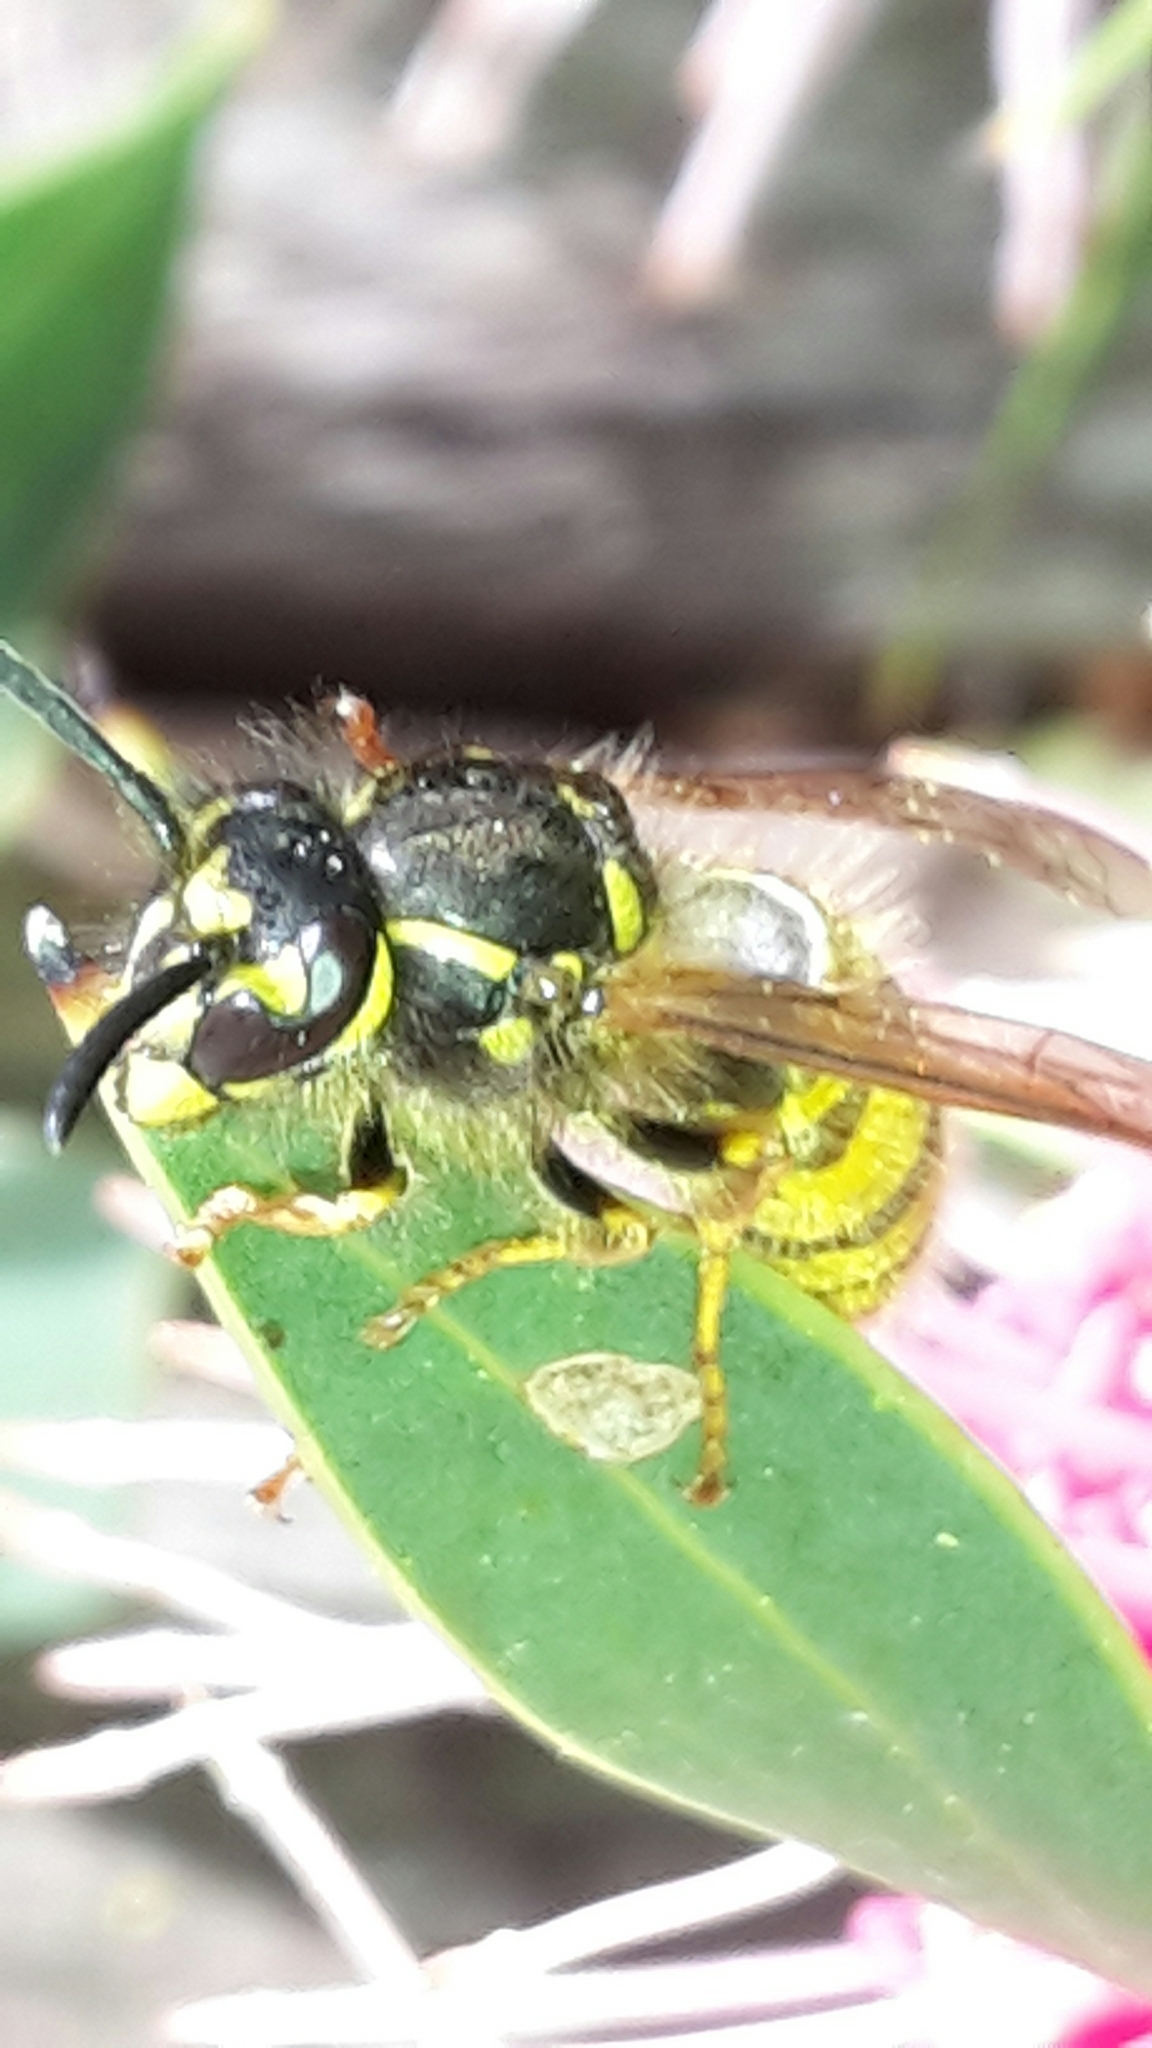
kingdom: Animalia
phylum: Arthropoda
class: Insecta
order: Hymenoptera
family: Vespidae
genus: Vespula
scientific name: Vespula vulgaris
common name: Common wasp
